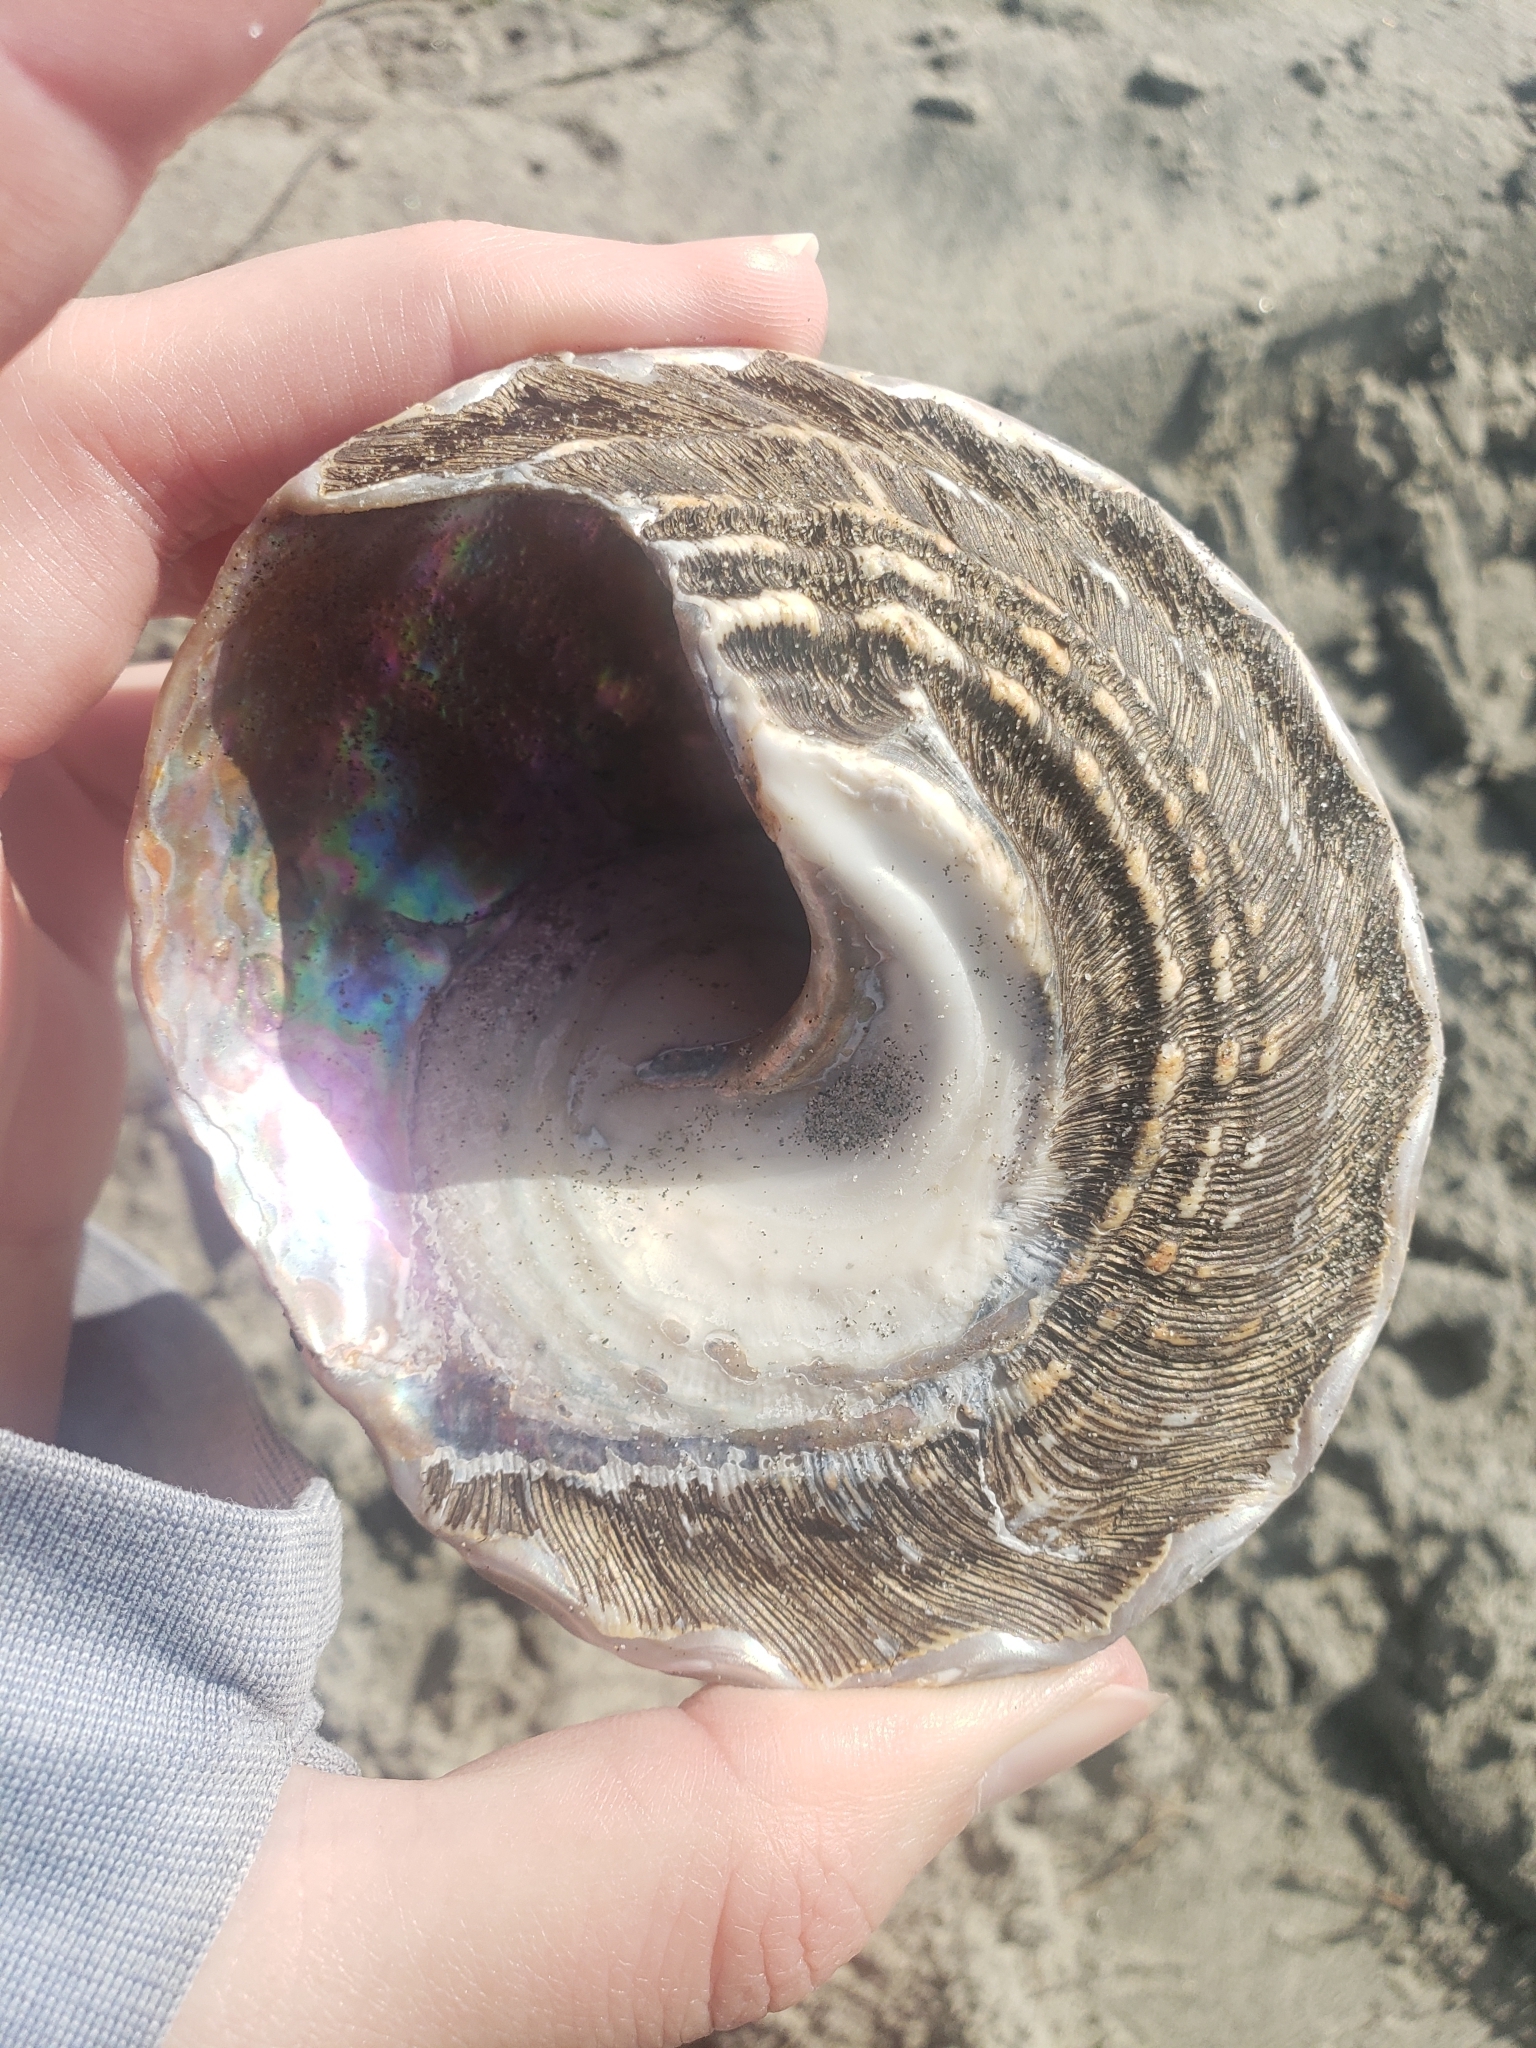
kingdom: Animalia
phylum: Mollusca
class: Gastropoda
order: Trochida
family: Turbinidae
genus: Megastraea
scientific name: Megastraea undosa
